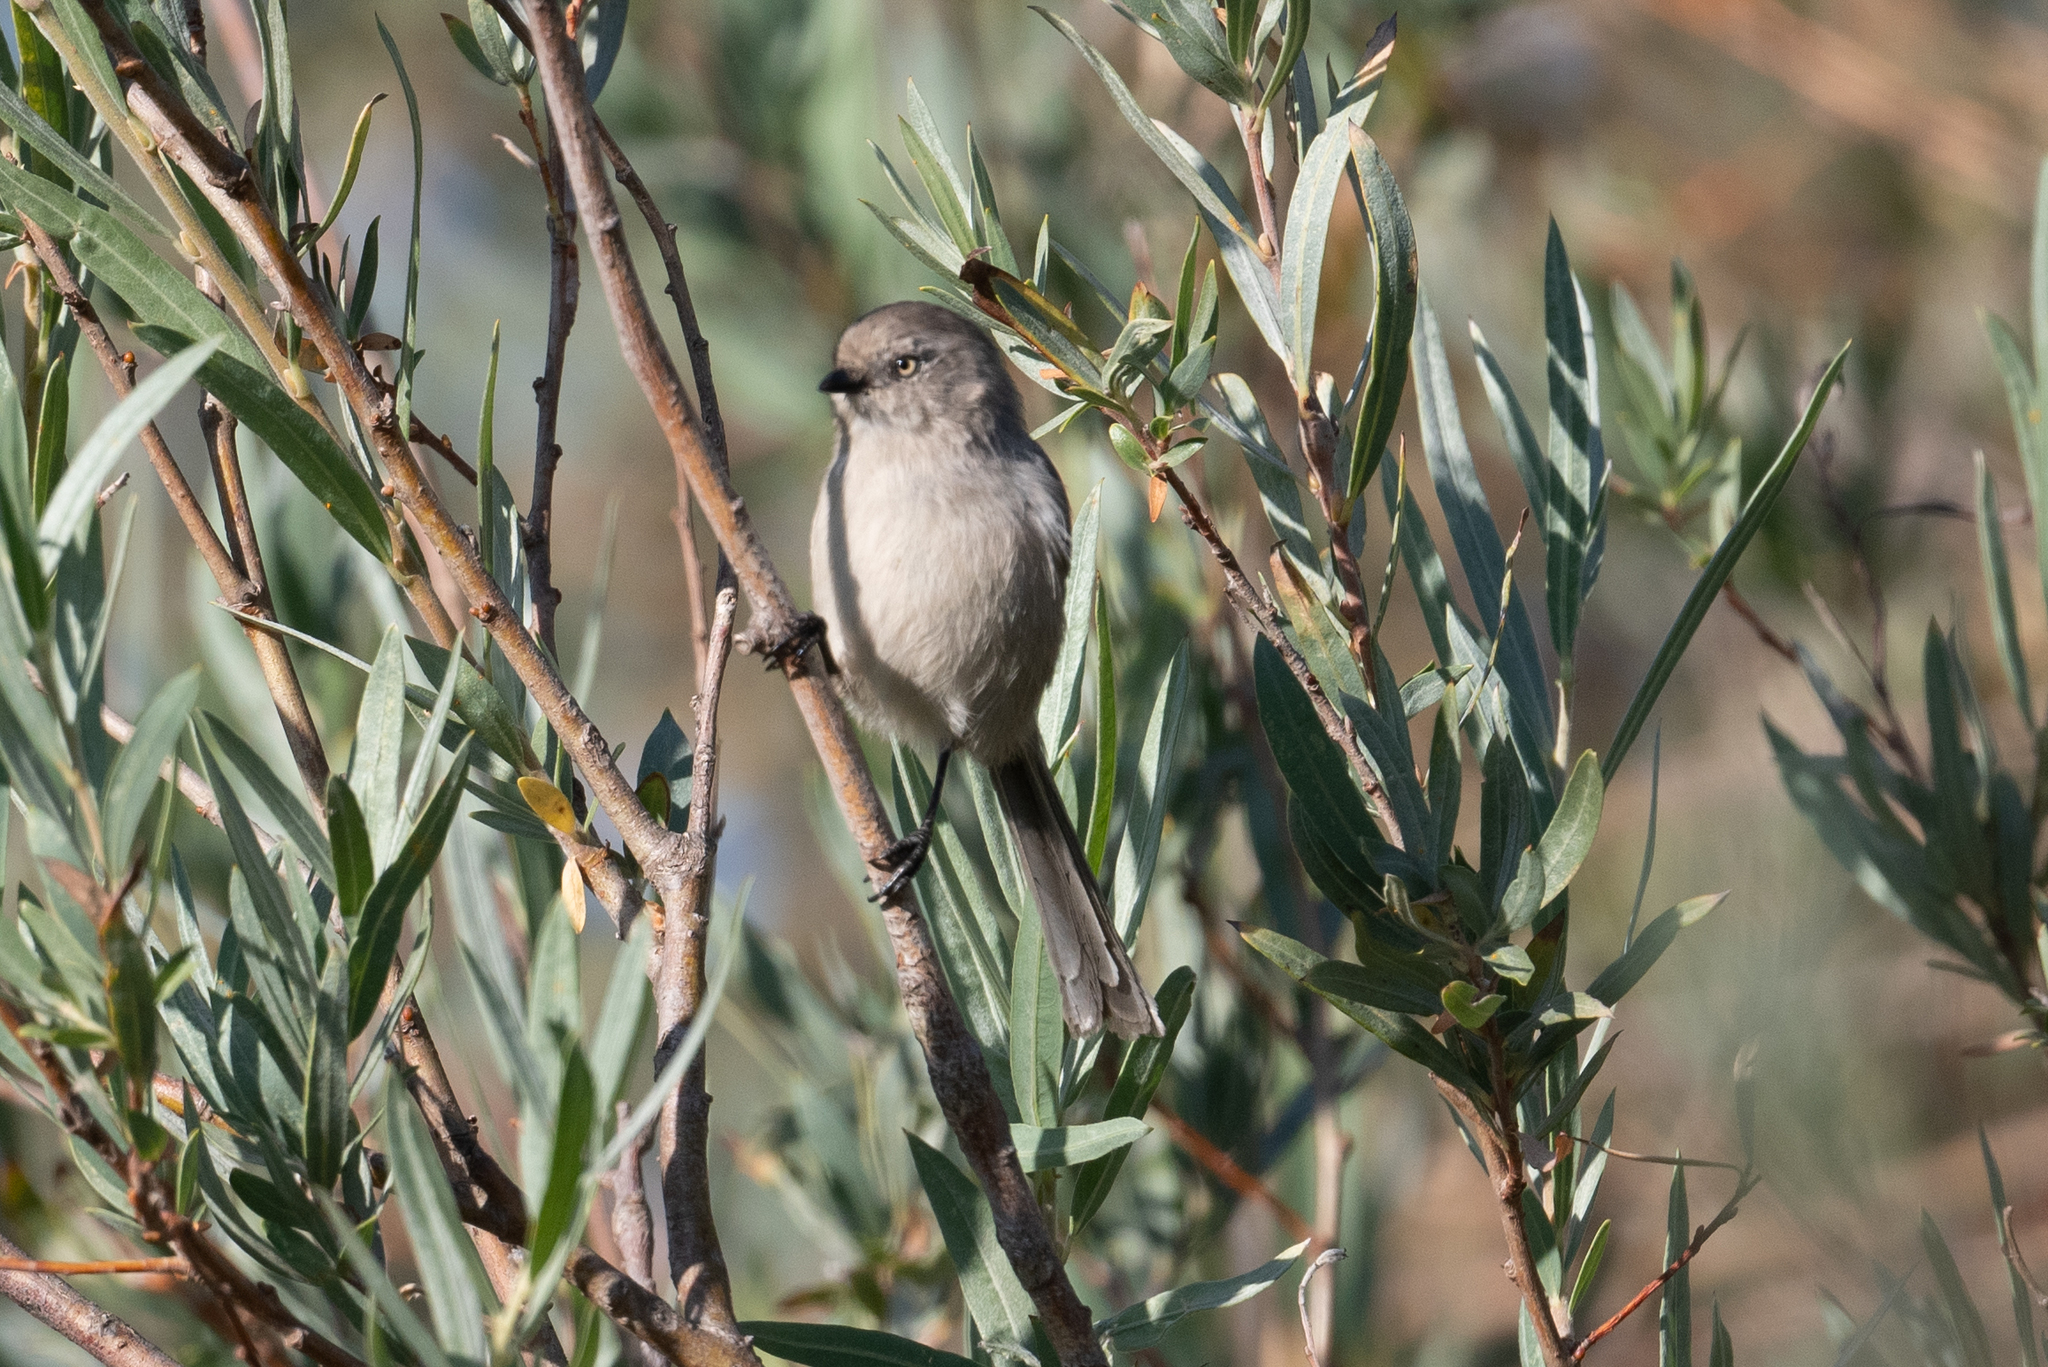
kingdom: Animalia
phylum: Chordata
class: Aves
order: Passeriformes
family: Aegithalidae
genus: Psaltriparus
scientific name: Psaltriparus minimus
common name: American bushtit
